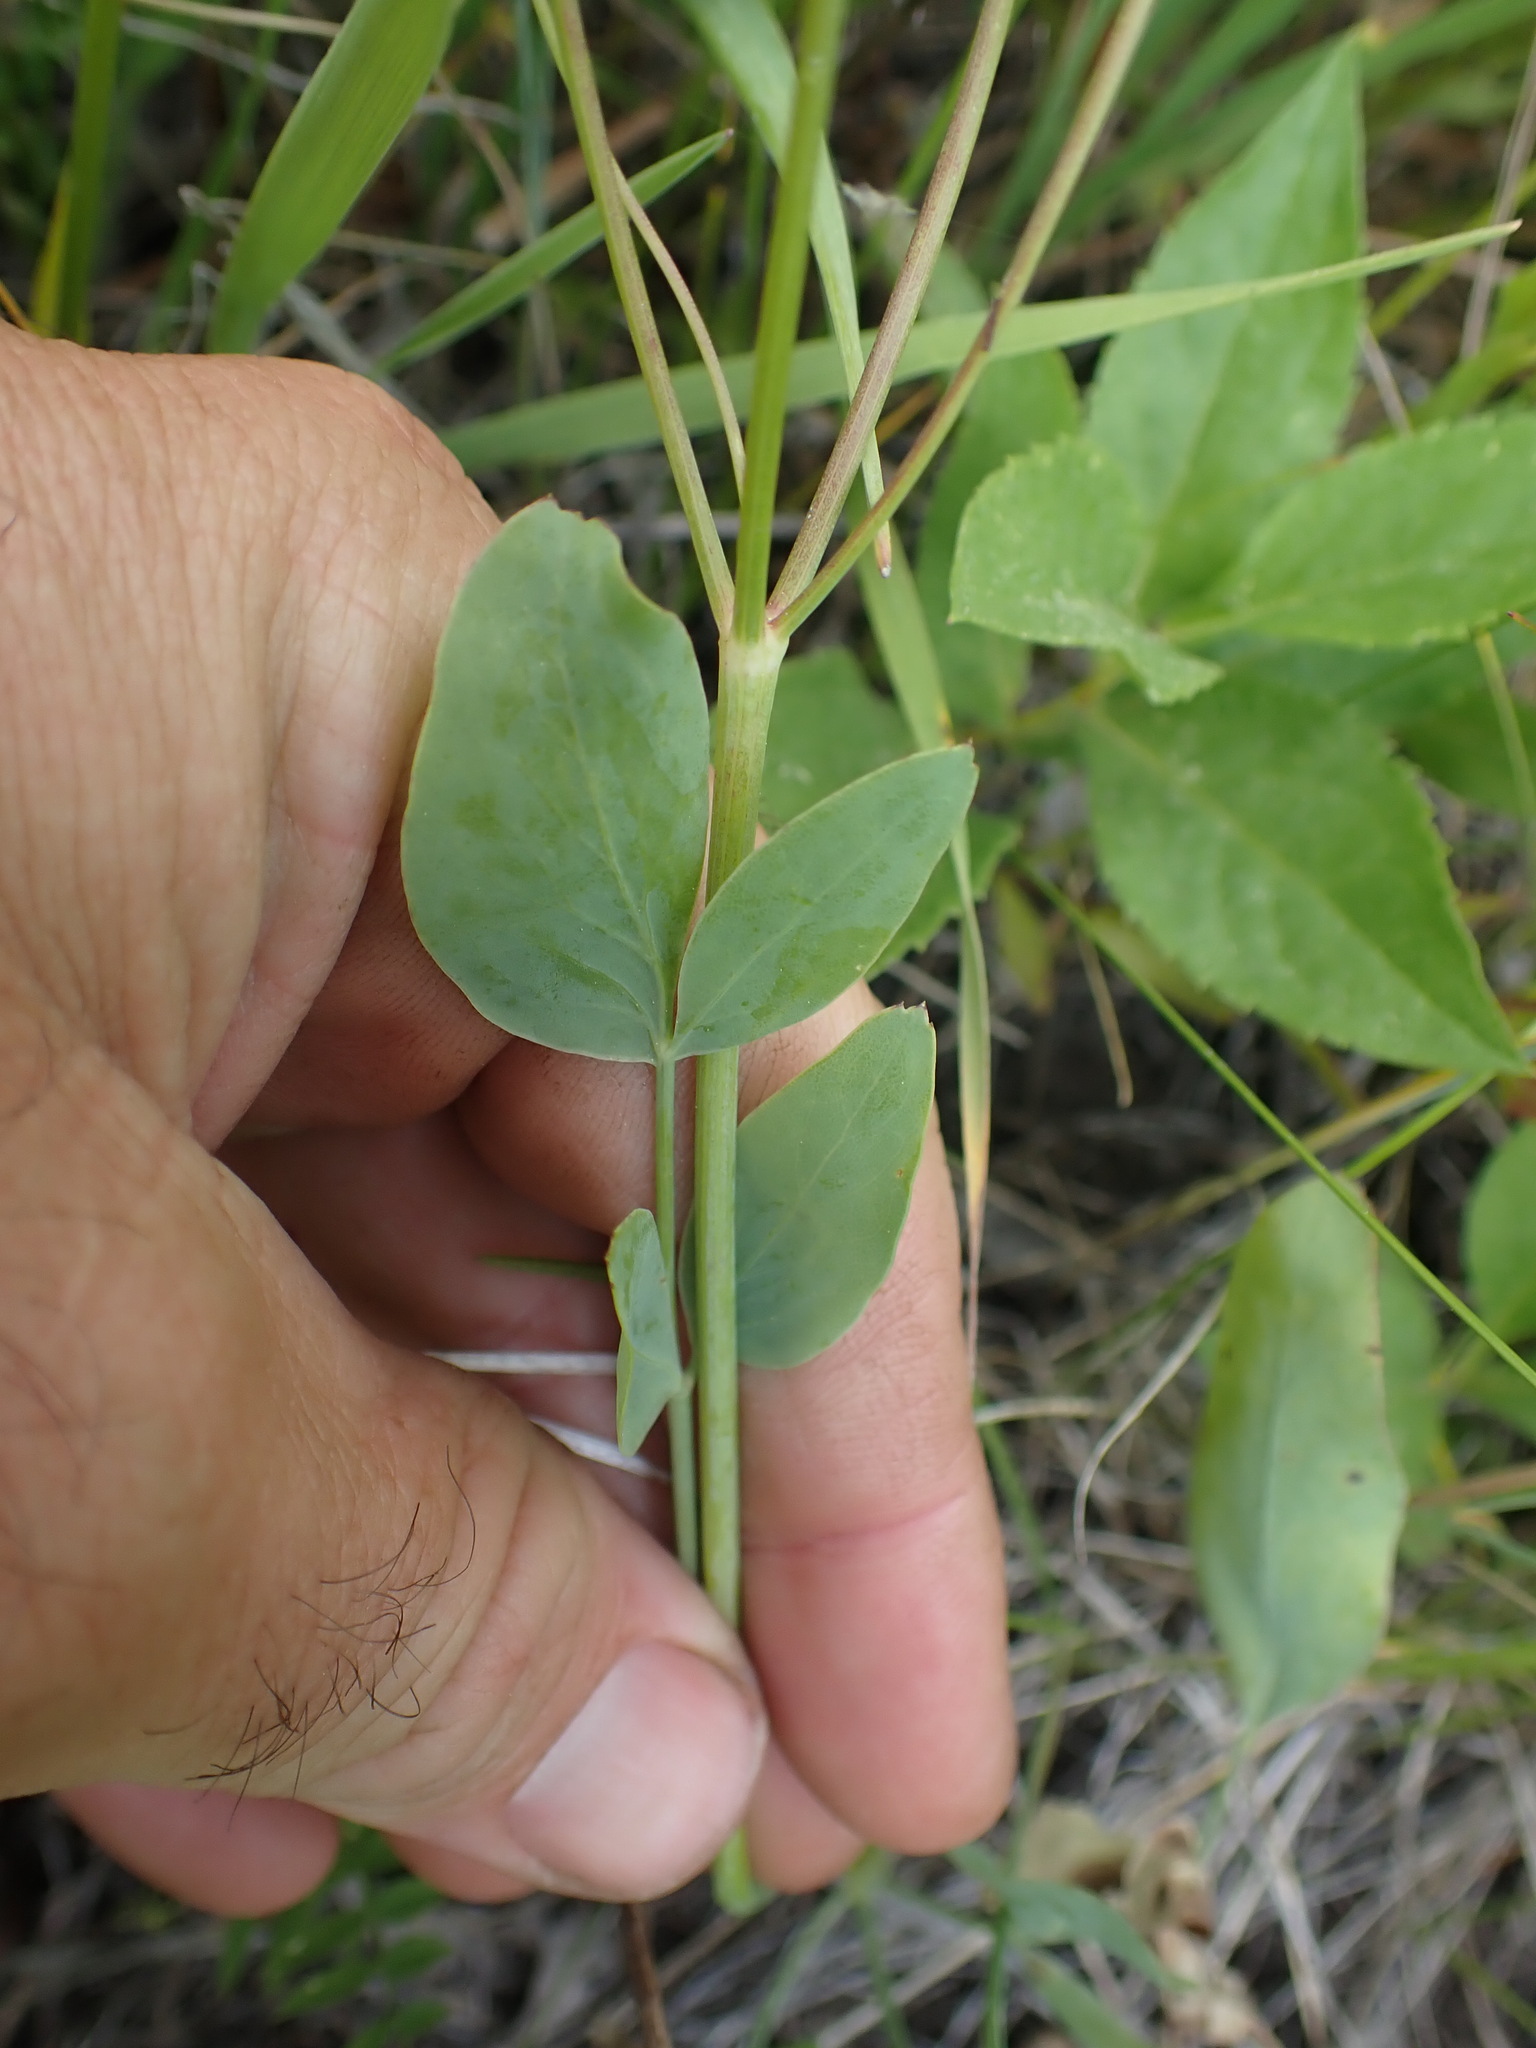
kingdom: Plantae
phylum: Tracheophyta
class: Magnoliopsida
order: Apiales
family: Apiaceae
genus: Lomatium
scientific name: Lomatium nudicaule
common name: Pestle lomatium
